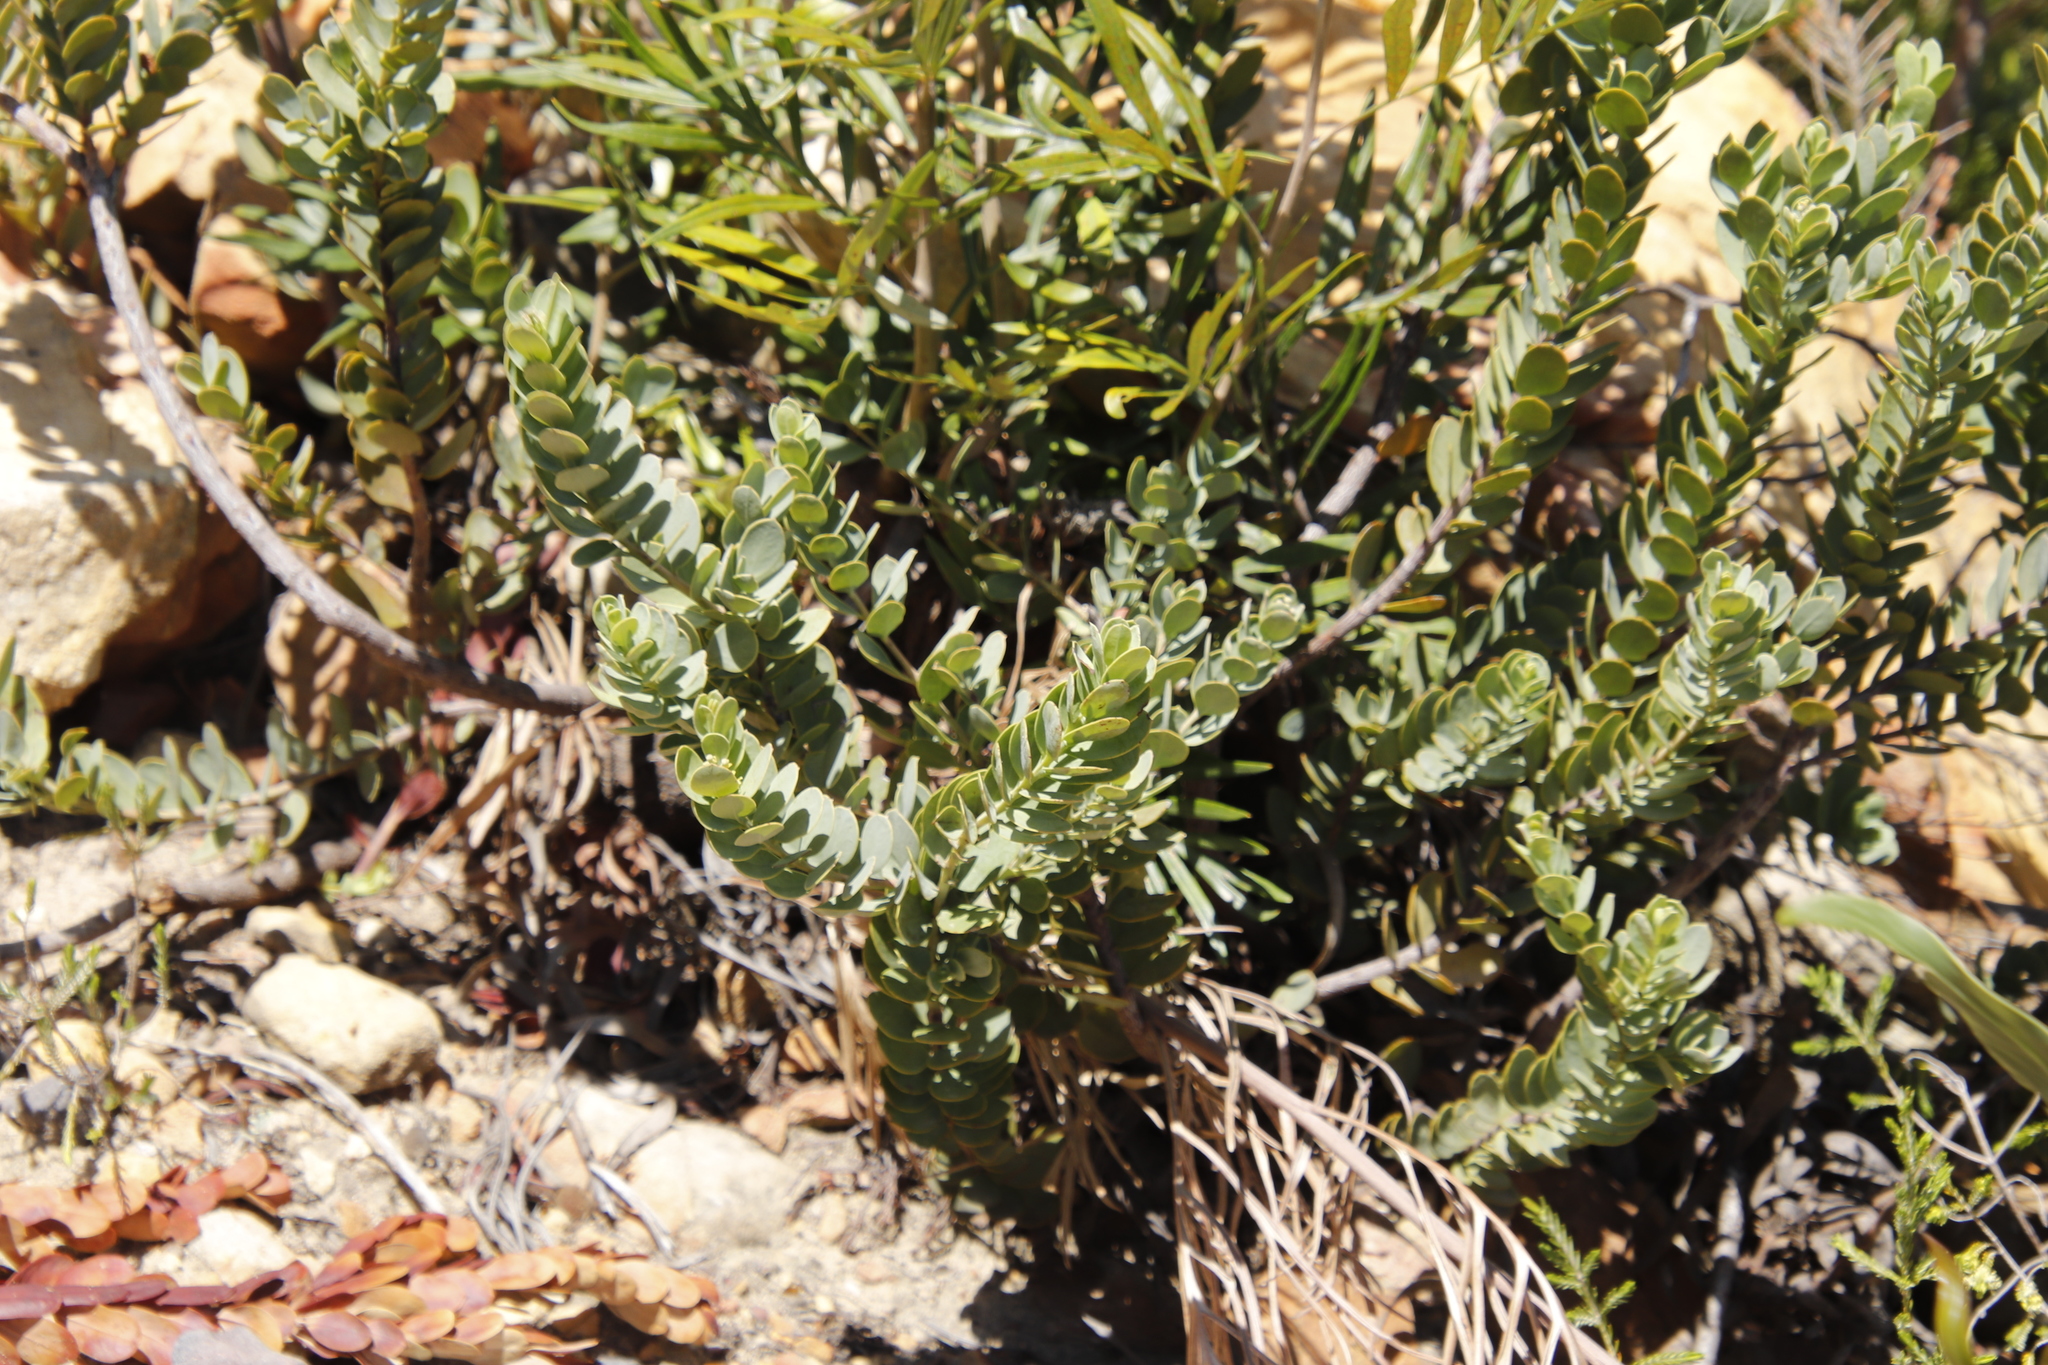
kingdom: Plantae
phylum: Tracheophyta
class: Magnoliopsida
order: Santalales
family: Santalaceae
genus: Osyris
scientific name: Osyris compressa
